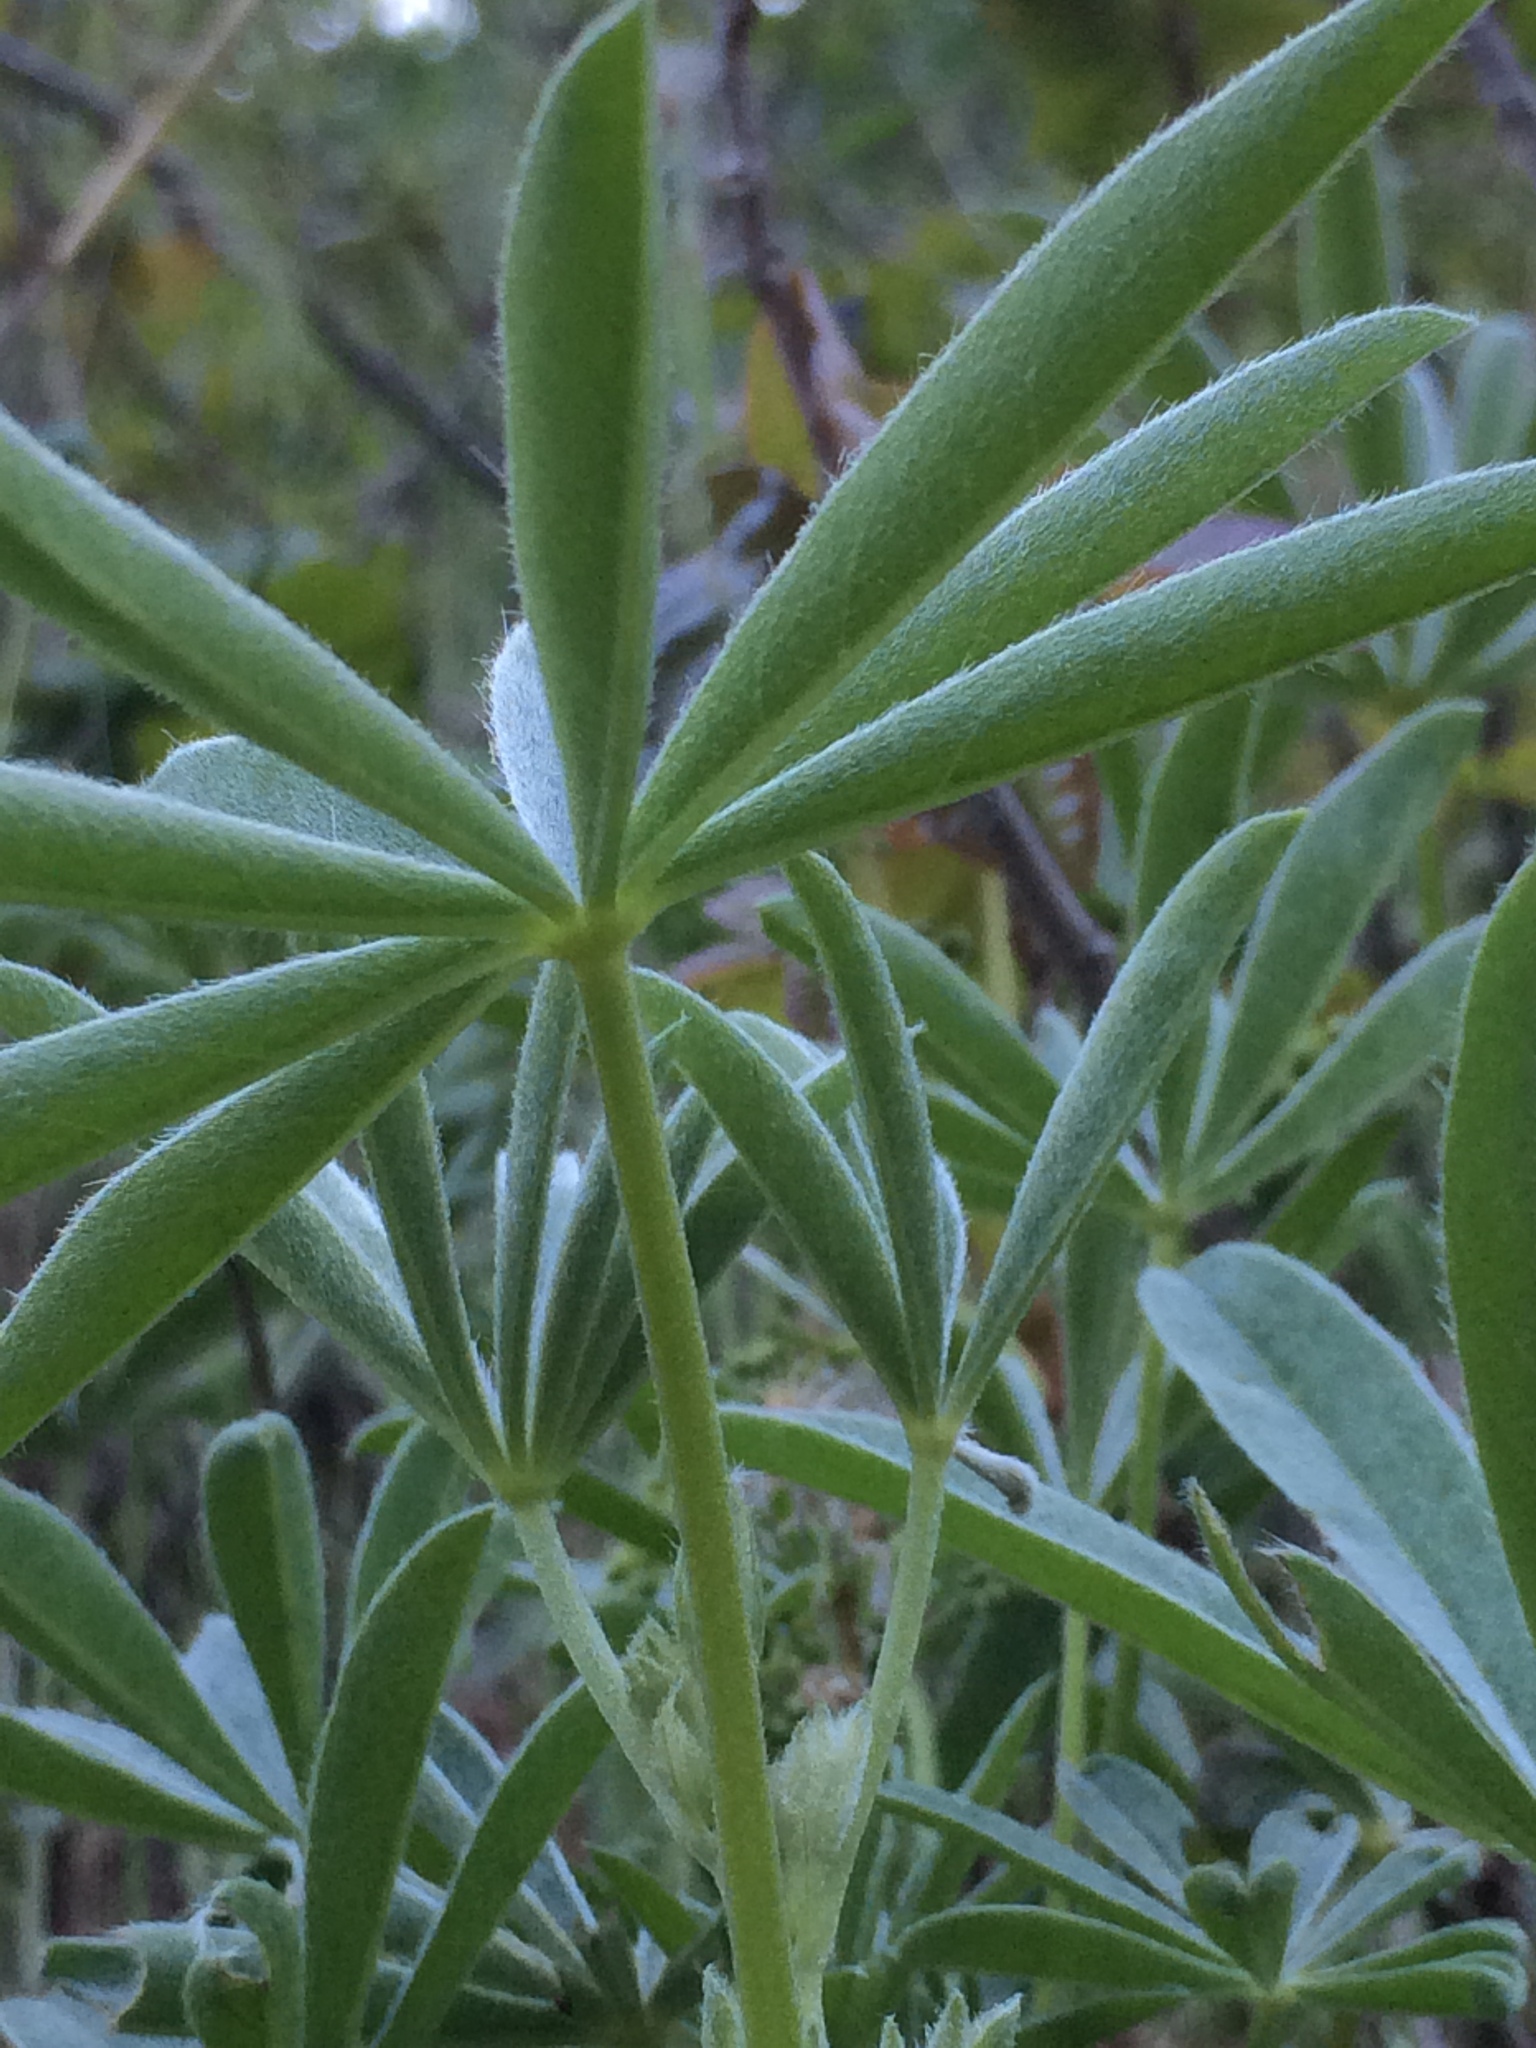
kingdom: Plantae
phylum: Tracheophyta
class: Magnoliopsida
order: Fabales
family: Fabaceae
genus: Lupinus
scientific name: Lupinus bicolor
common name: Miniature lupine
